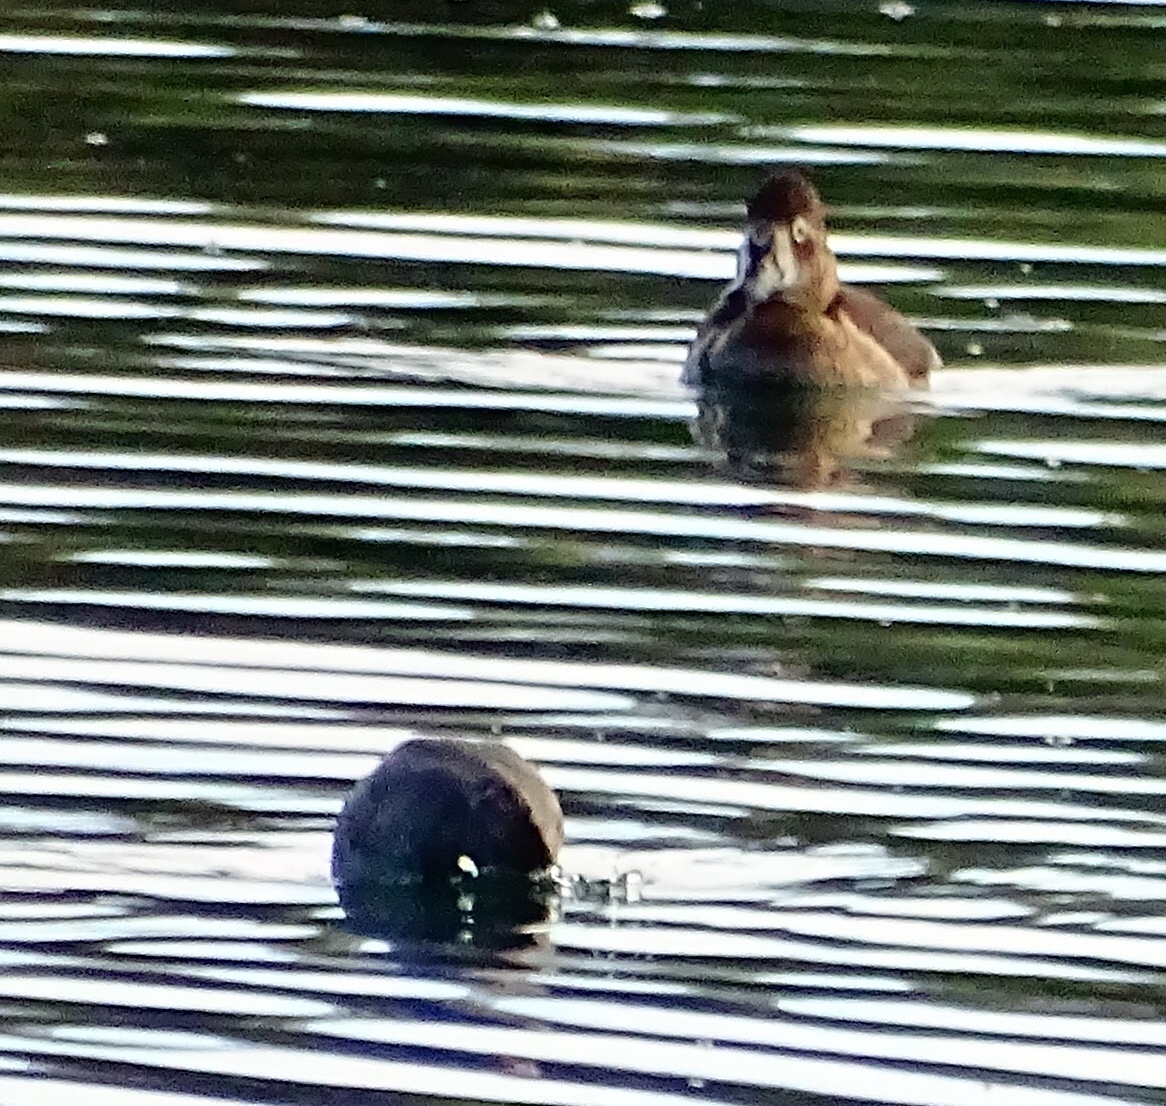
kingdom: Animalia
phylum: Chordata
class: Aves
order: Anseriformes
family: Anatidae
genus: Aythya
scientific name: Aythya collaris
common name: Ring-necked duck
